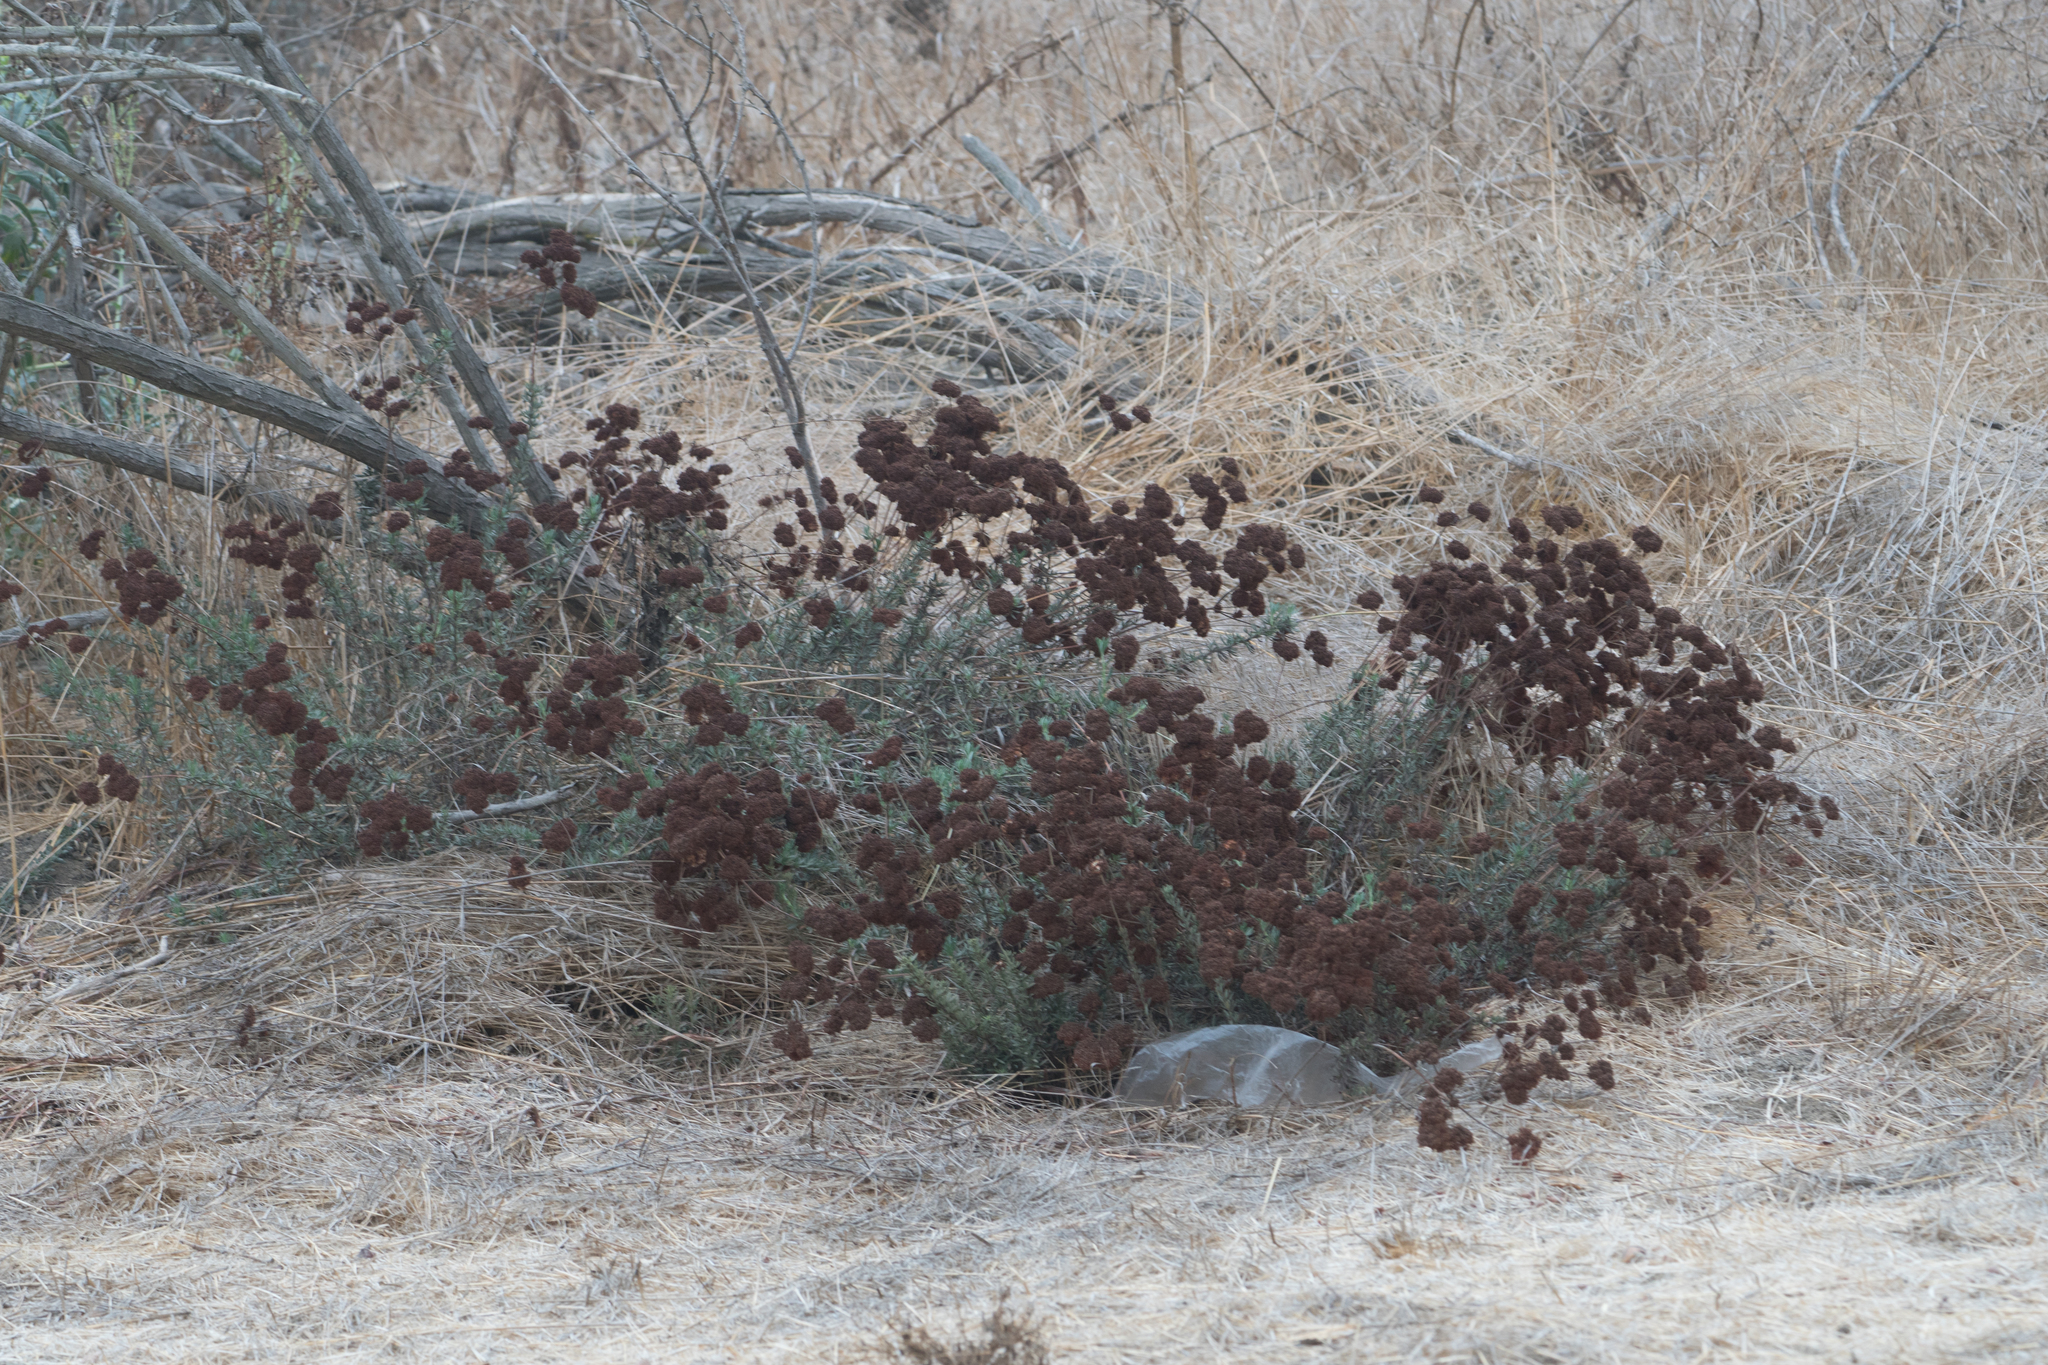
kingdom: Plantae
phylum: Tracheophyta
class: Magnoliopsida
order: Caryophyllales
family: Polygonaceae
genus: Eriogonum
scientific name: Eriogonum fasciculatum
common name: California wild buckwheat
